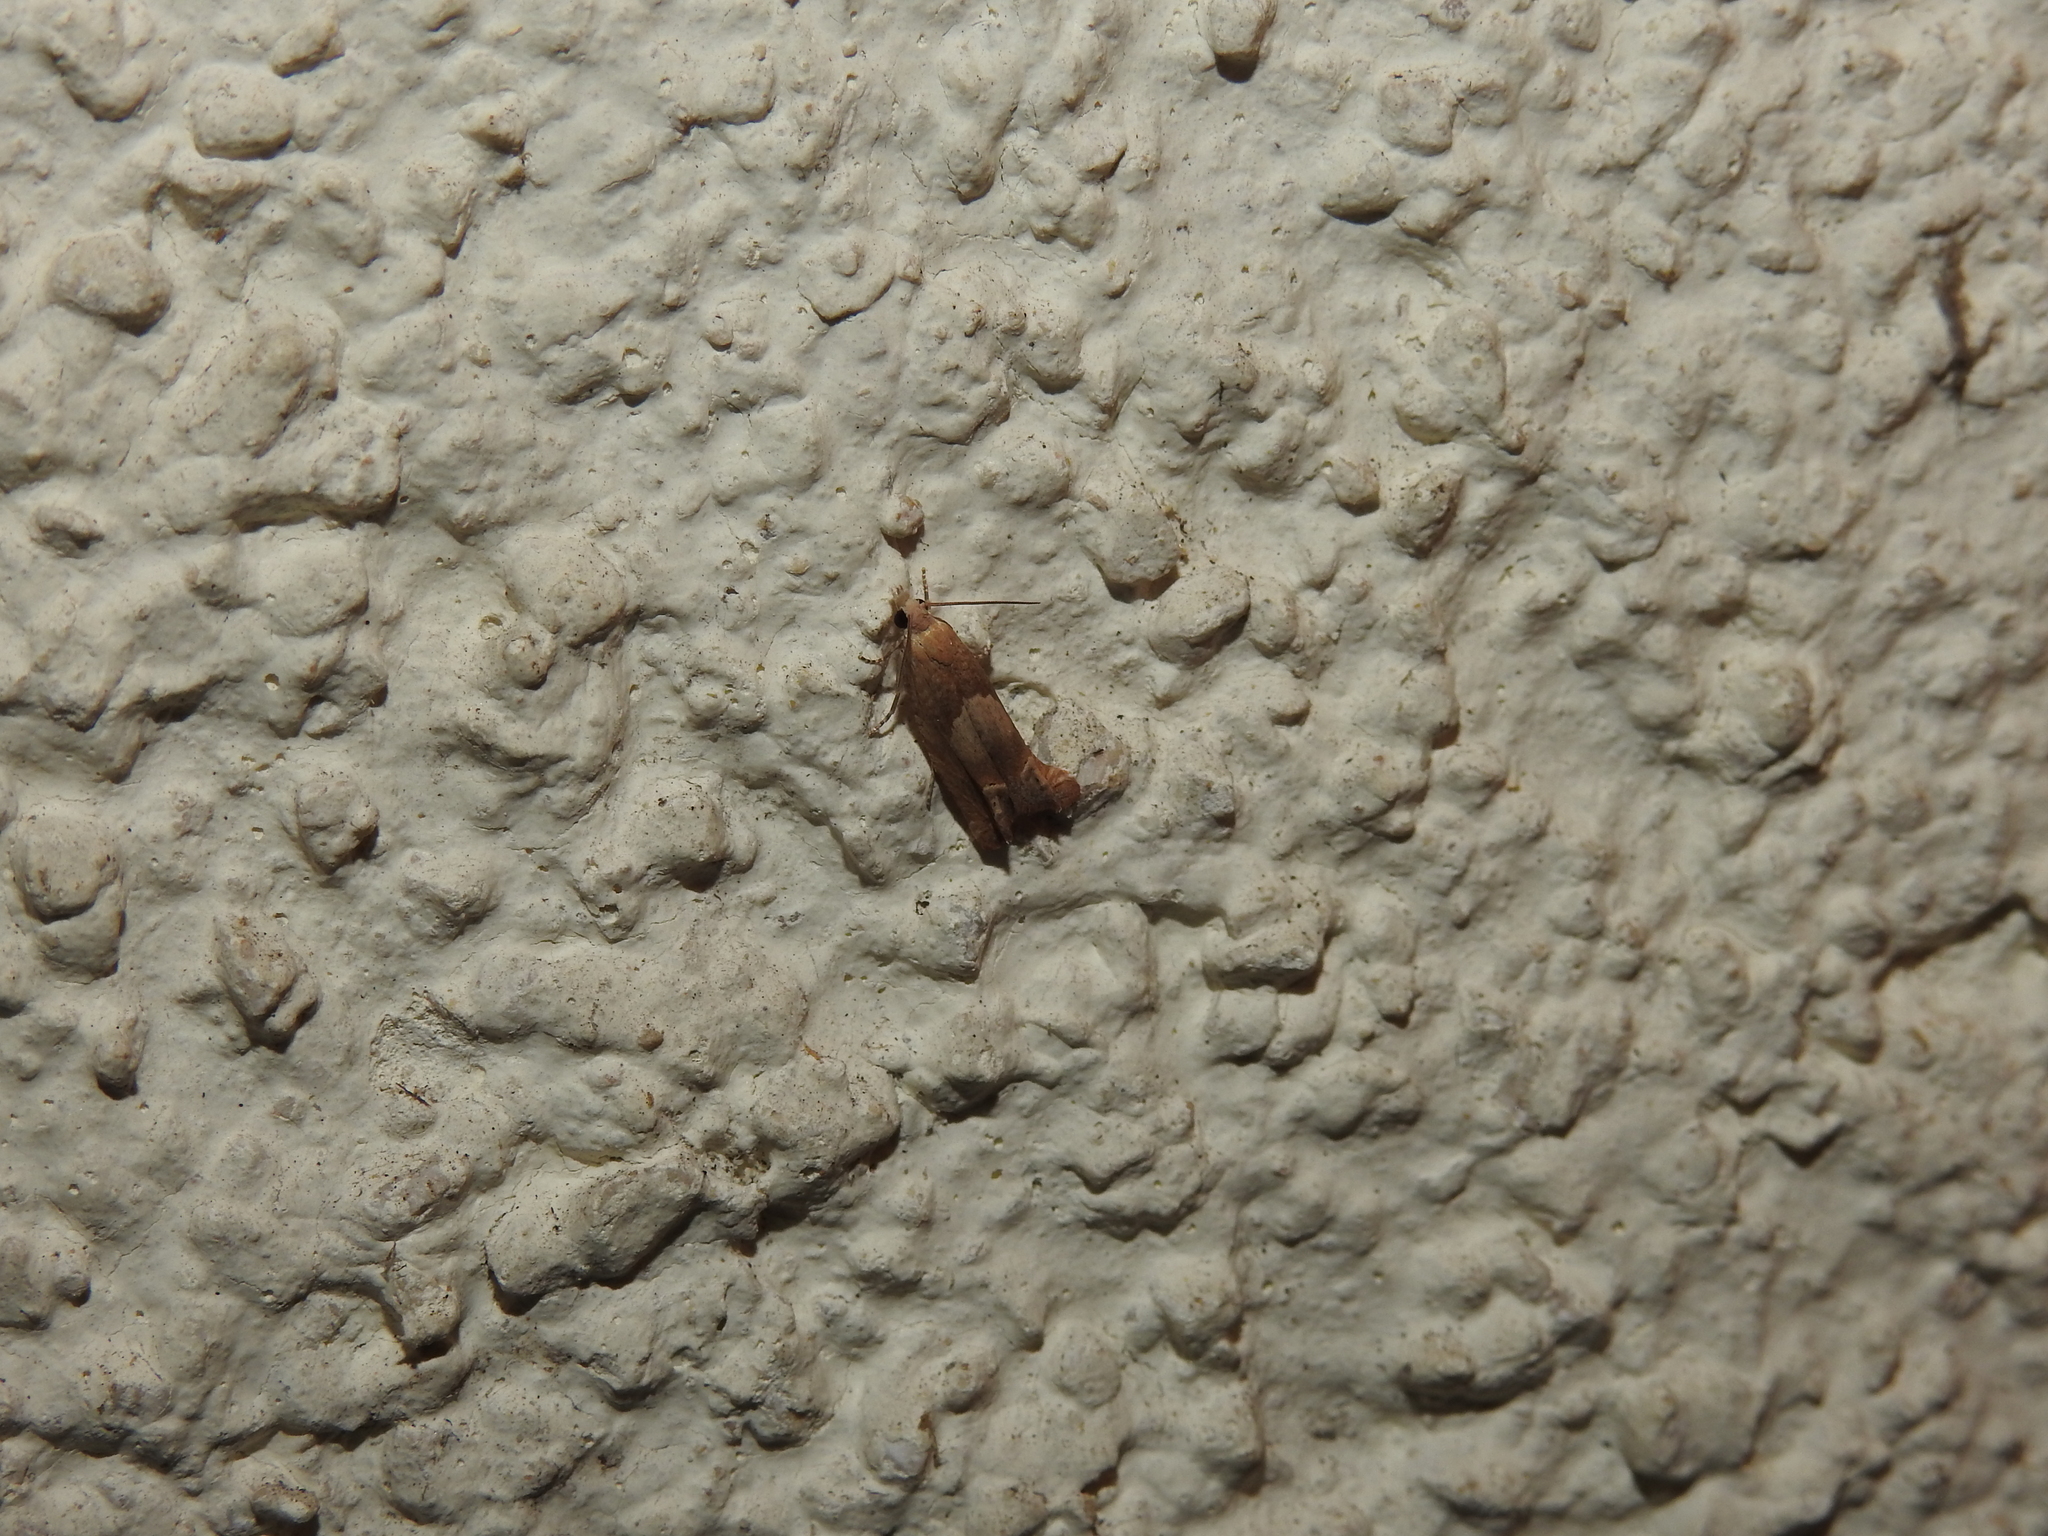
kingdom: Animalia
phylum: Arthropoda
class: Insecta
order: Lepidoptera
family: Tortricidae
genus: Eucosma
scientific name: Eucosma conterminana
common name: Pale lettuce bell
